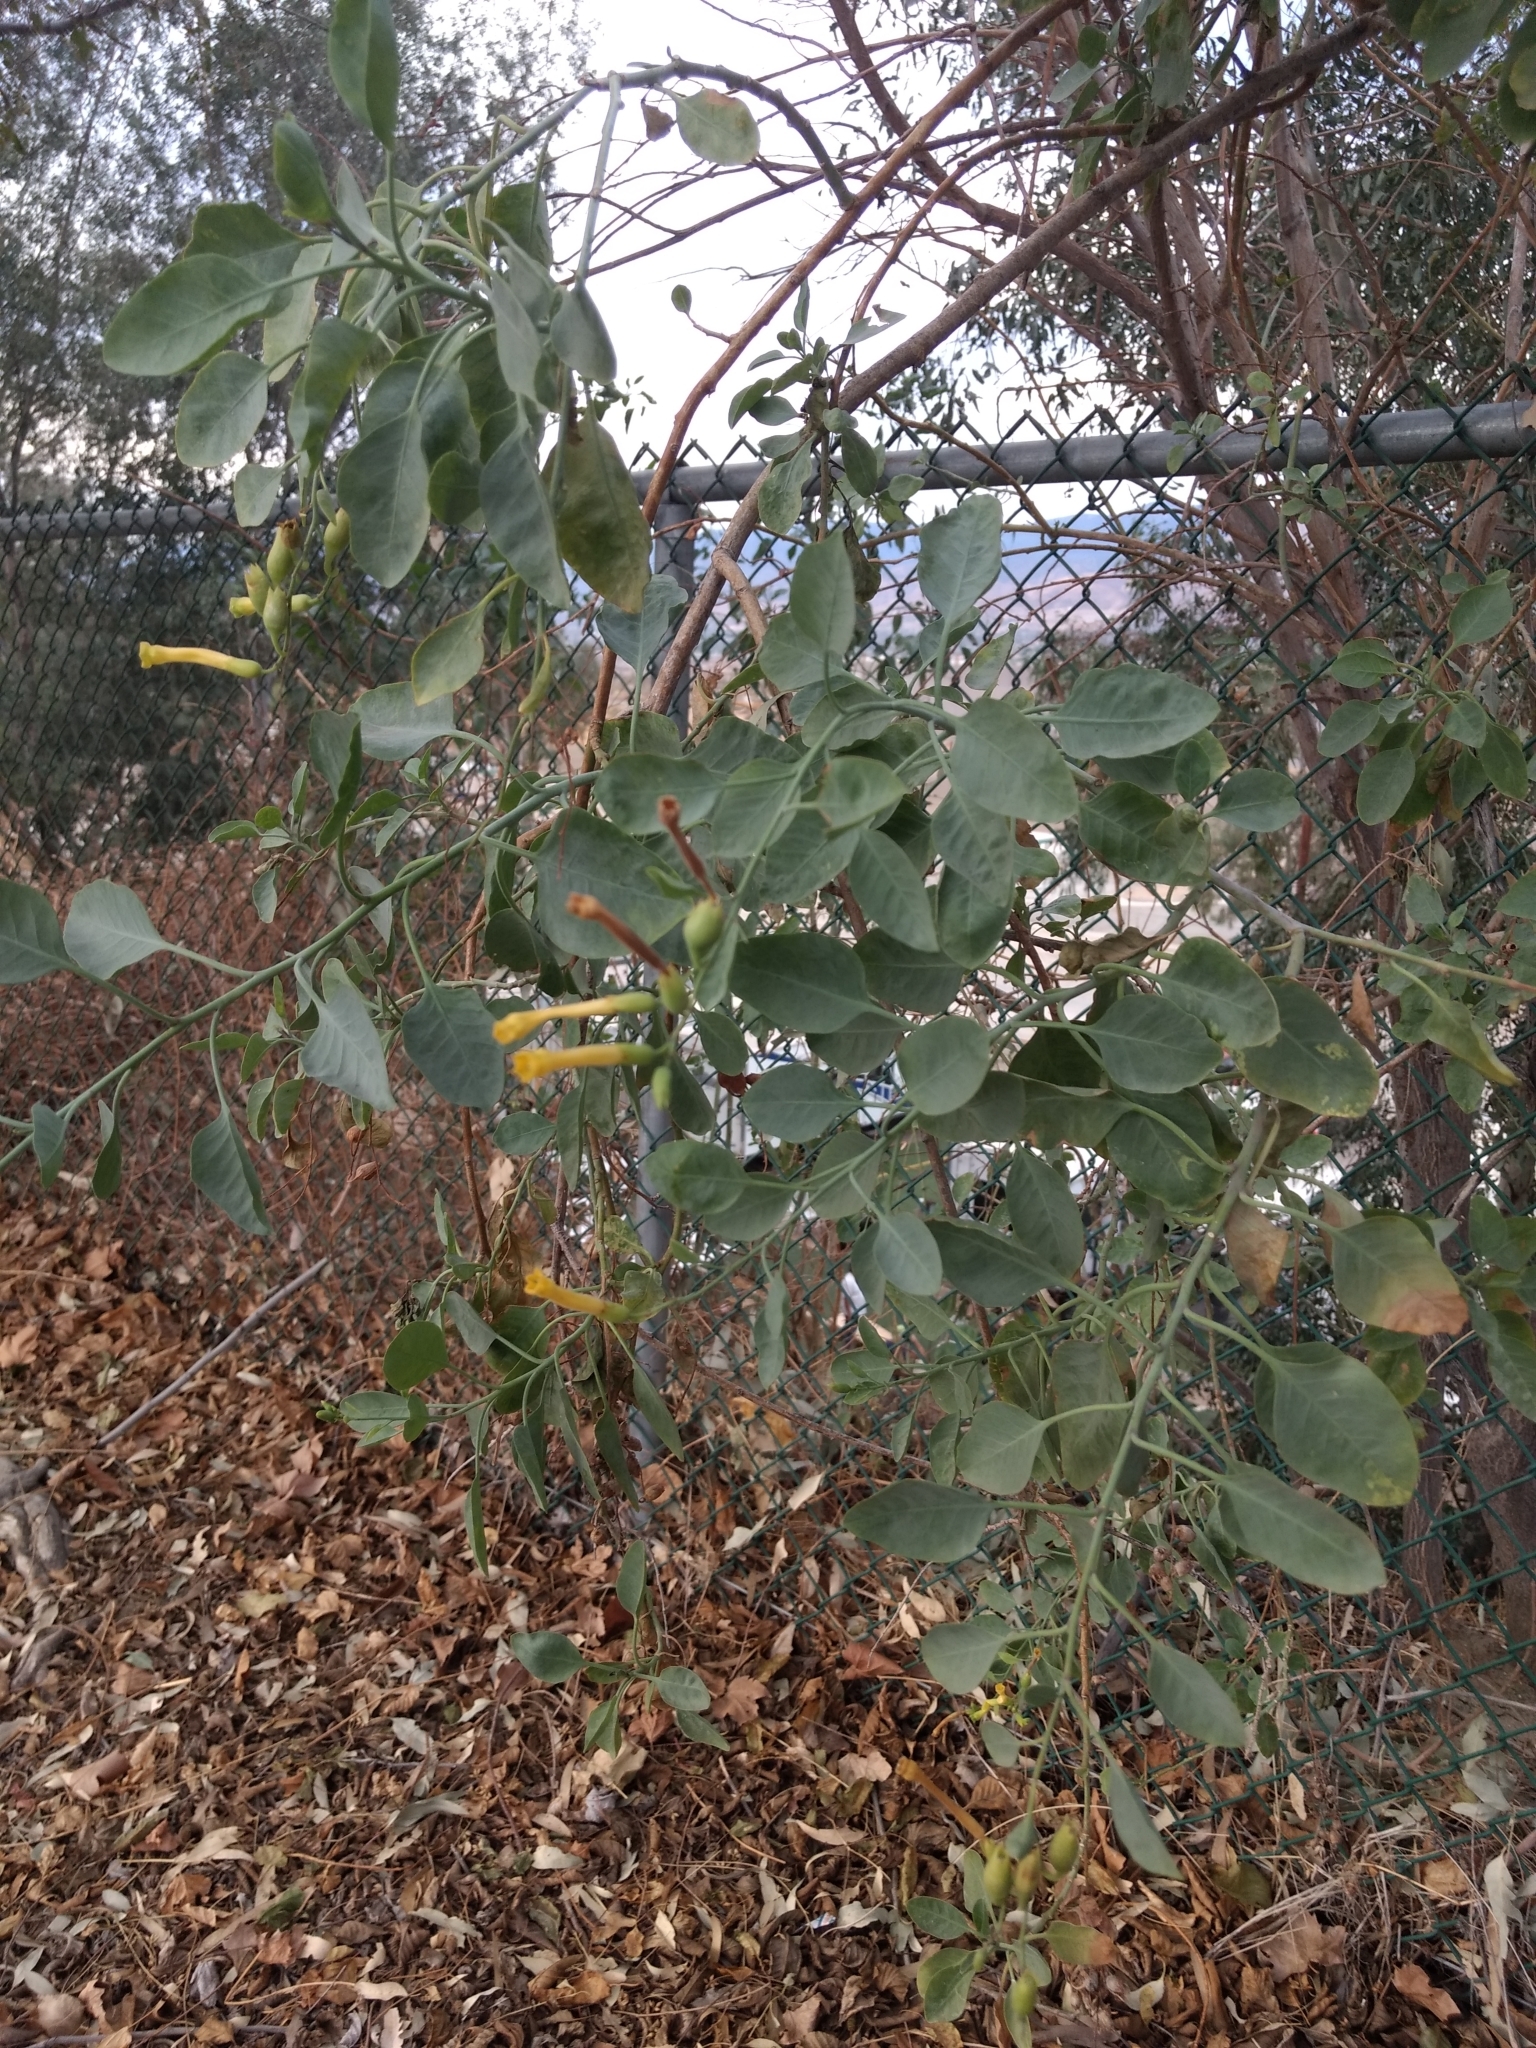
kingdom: Plantae
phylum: Tracheophyta
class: Magnoliopsida
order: Solanales
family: Solanaceae
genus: Nicotiana
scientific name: Nicotiana glauca
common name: Tree tobacco
